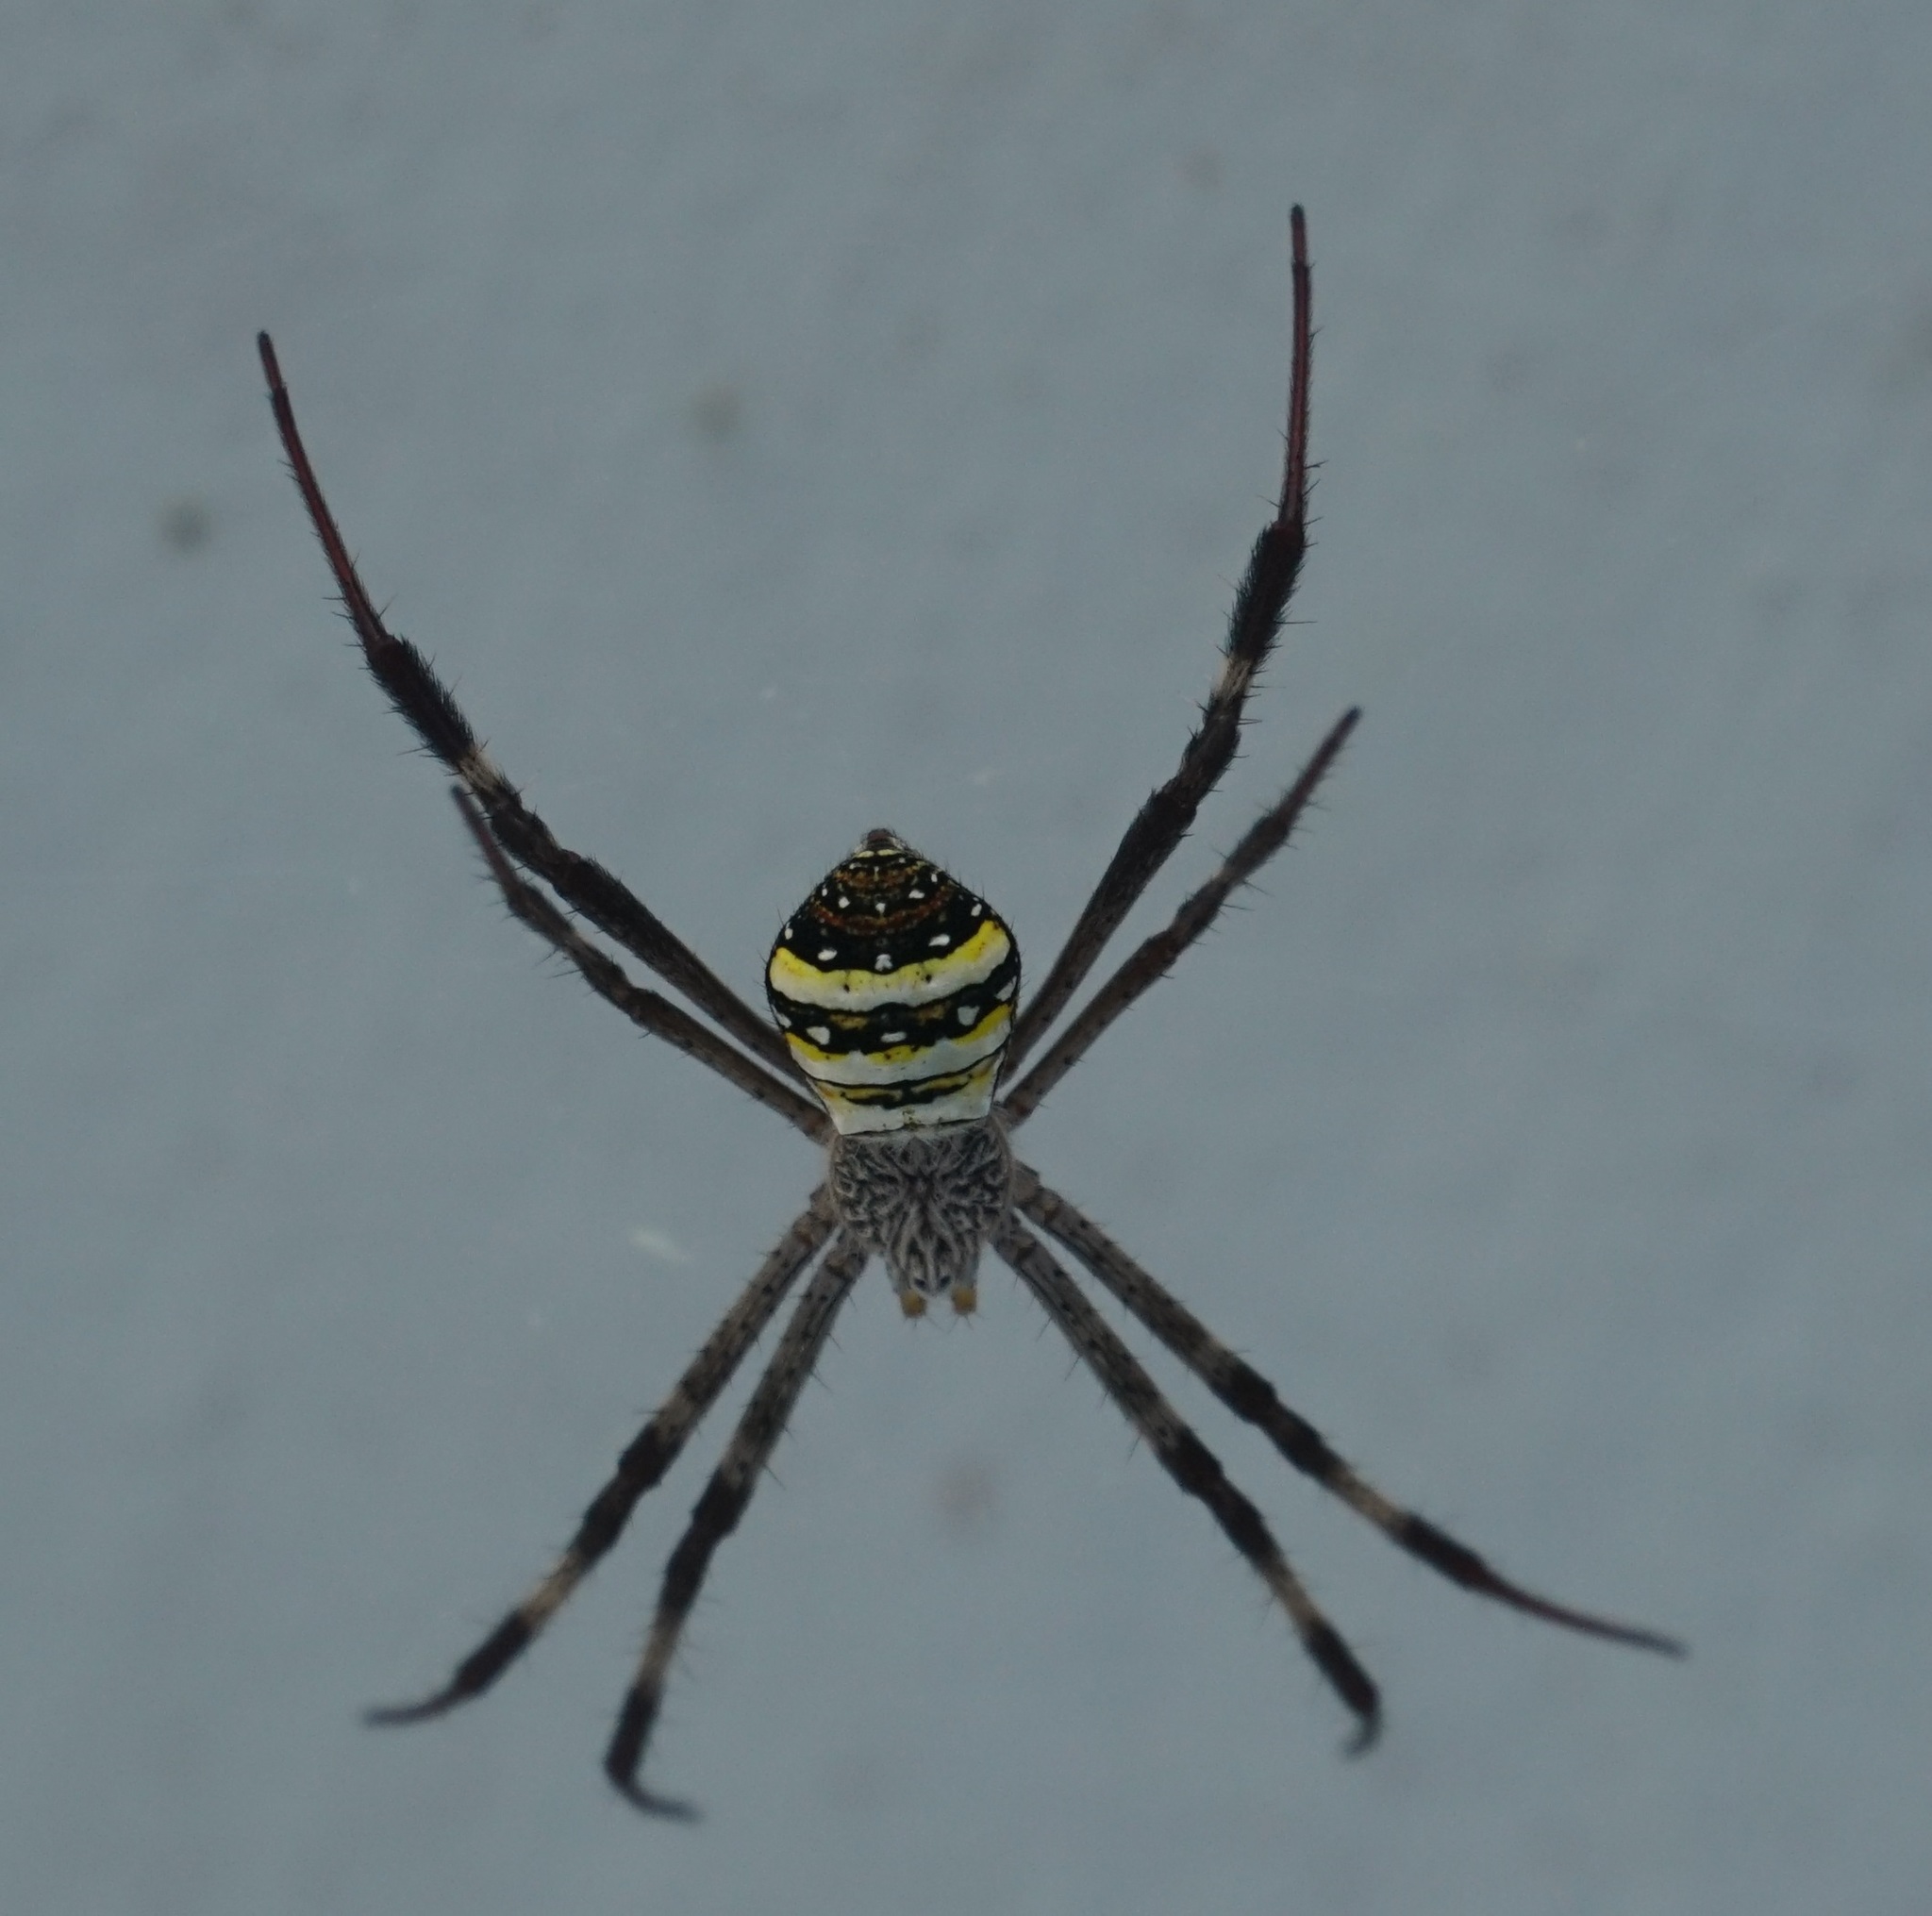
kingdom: Animalia
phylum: Arthropoda
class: Arachnida
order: Araneae
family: Araneidae
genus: Argiope
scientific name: Argiope aetherea
